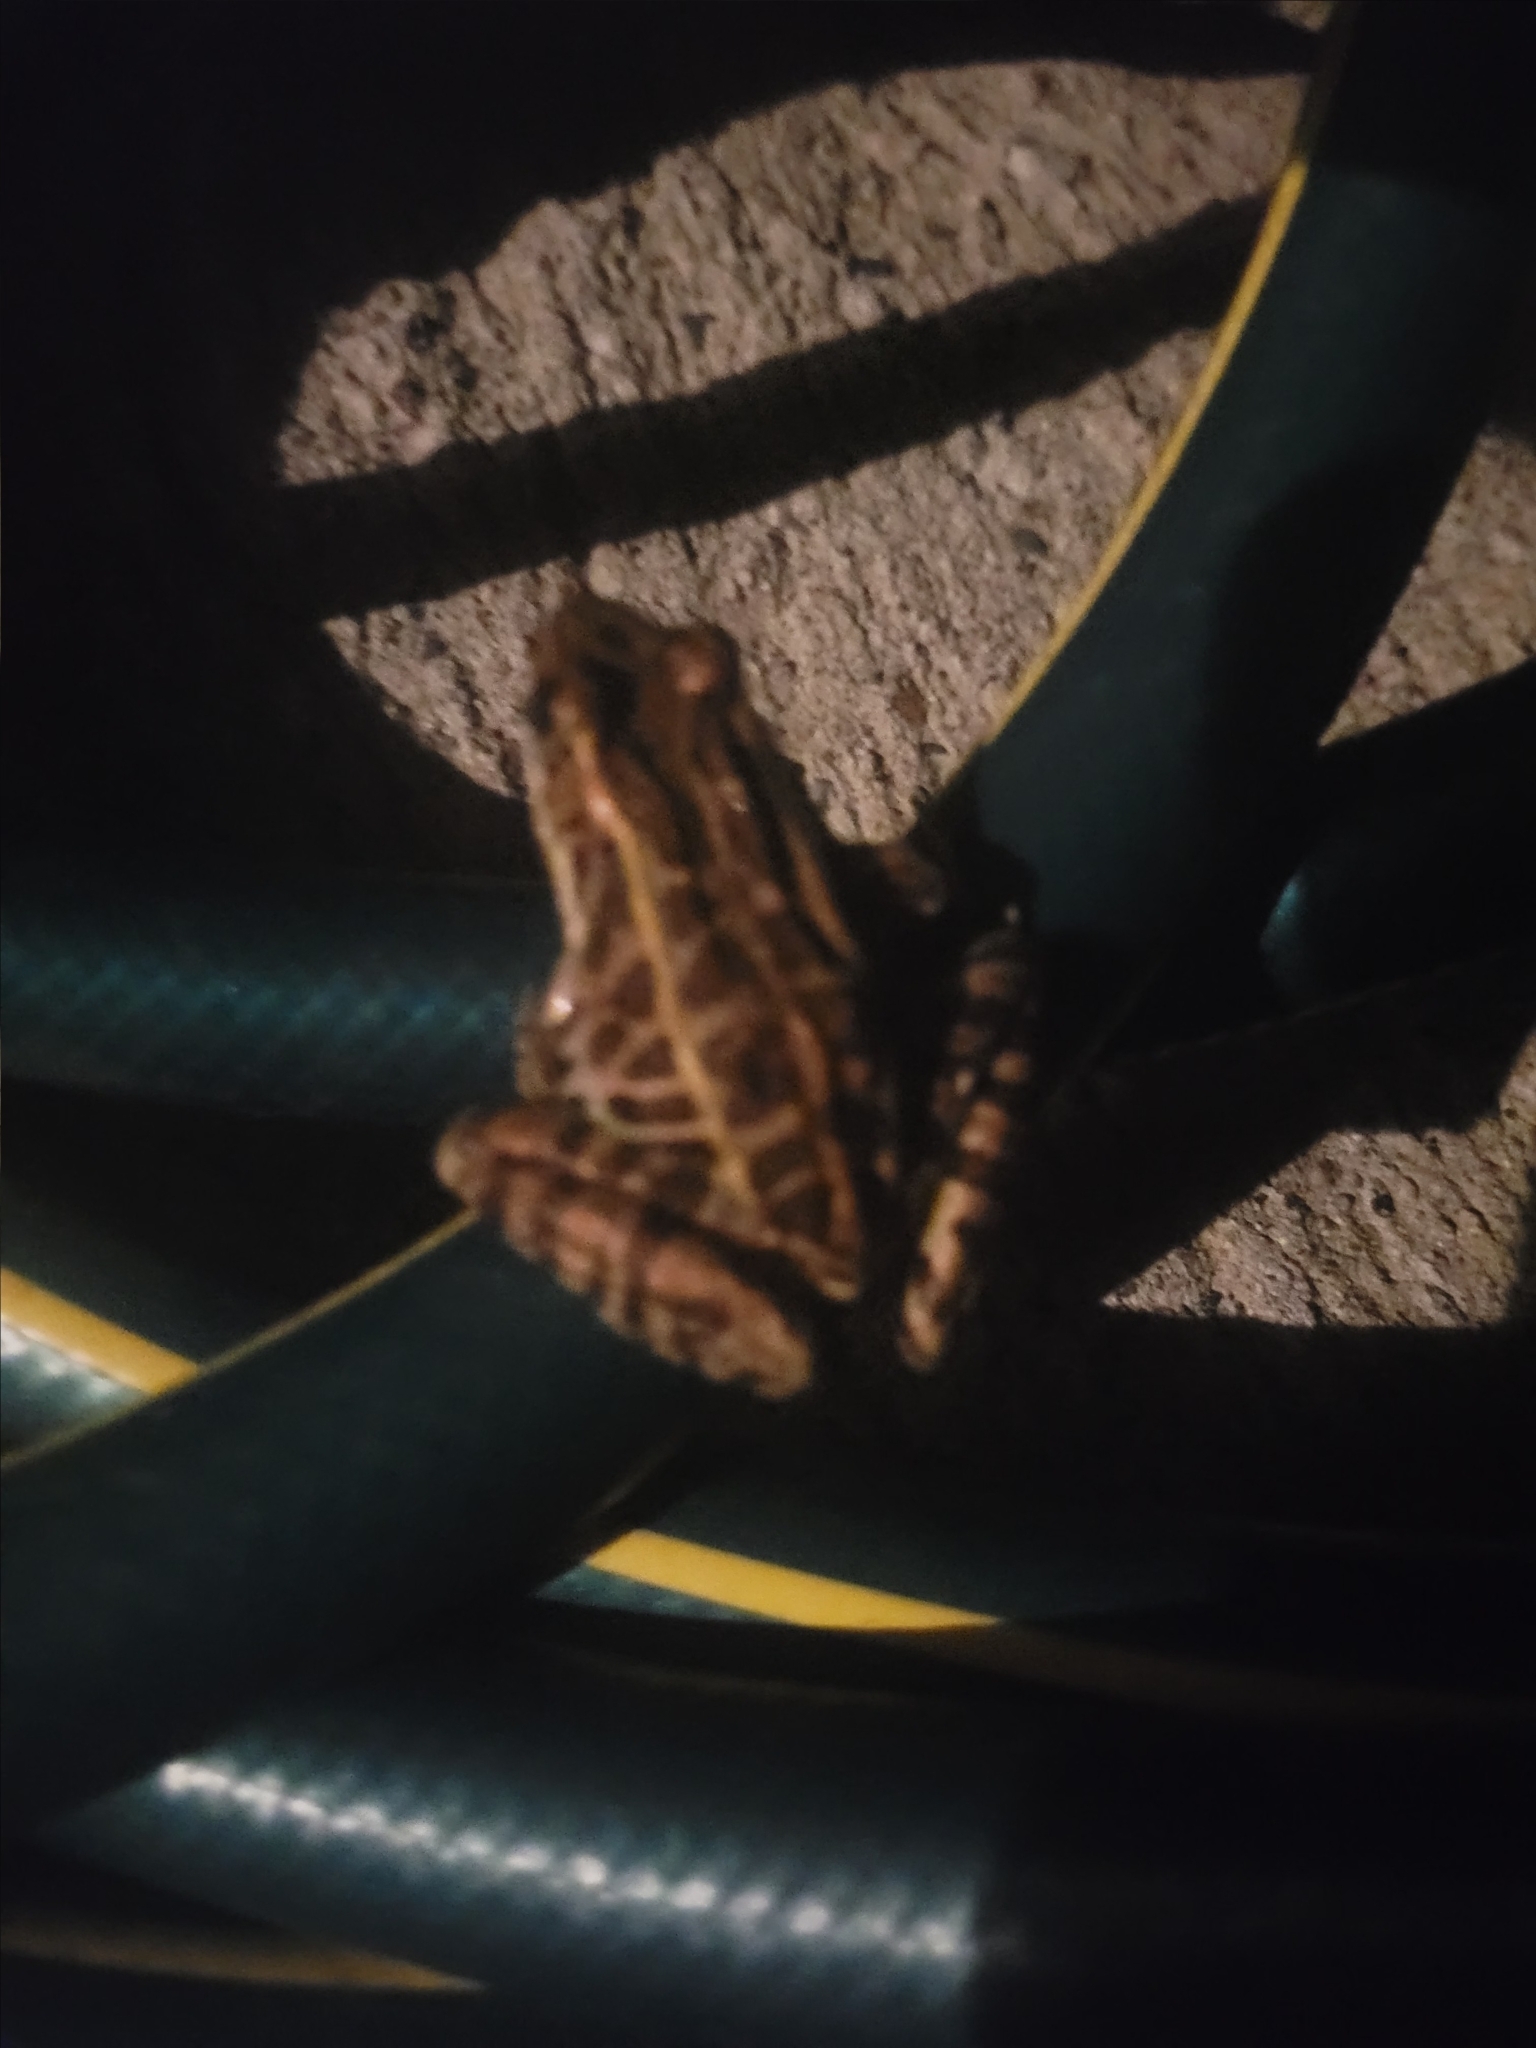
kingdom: Animalia
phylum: Chordata
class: Amphibia
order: Anura
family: Ranidae
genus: Lithobates
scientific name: Lithobates palustris
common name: Pickerel frog
